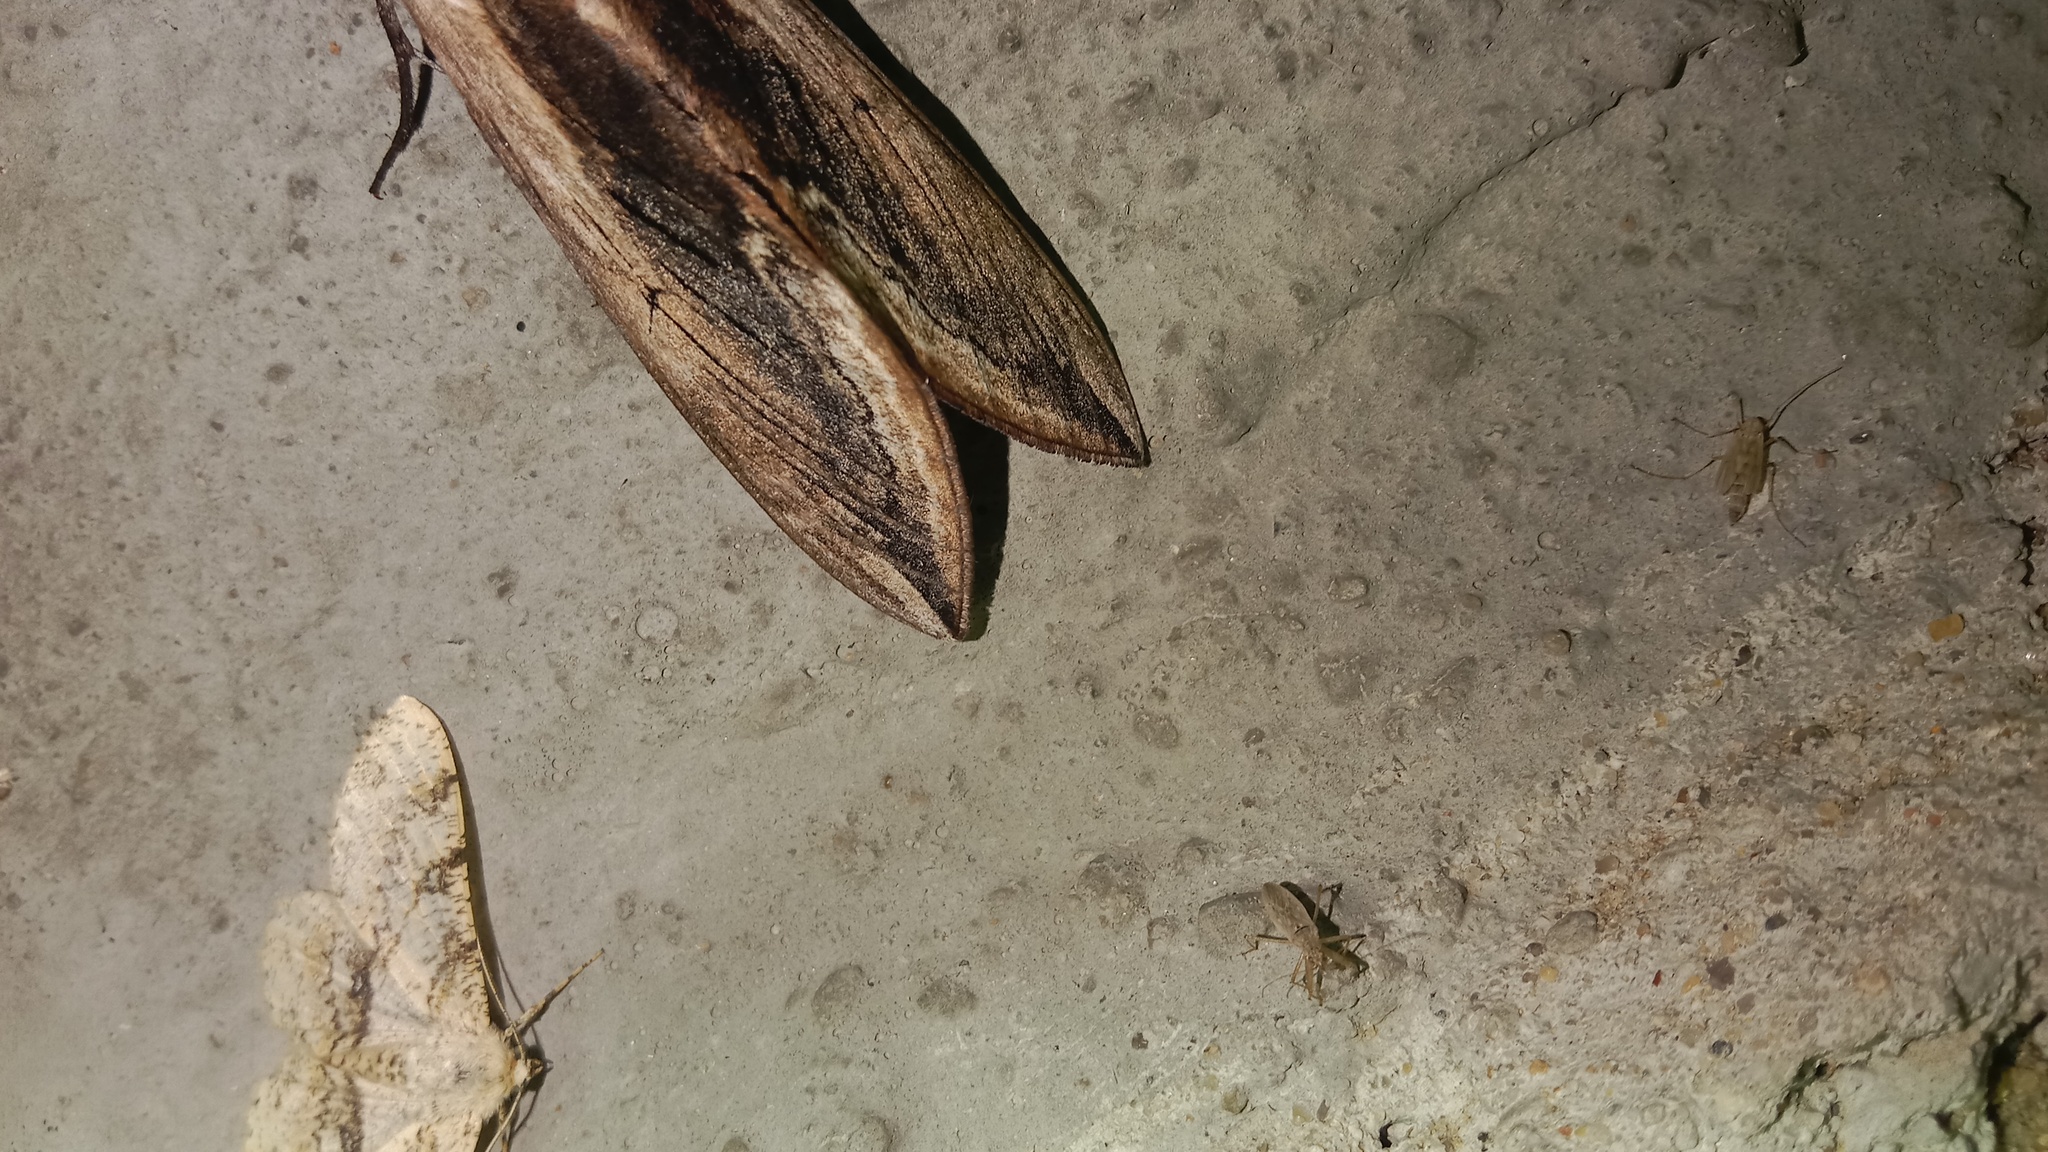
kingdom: Animalia
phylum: Arthropoda
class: Insecta
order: Lepidoptera
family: Sphingidae
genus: Sphinx
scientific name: Sphinx ligustri
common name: Privet hawk-moth
